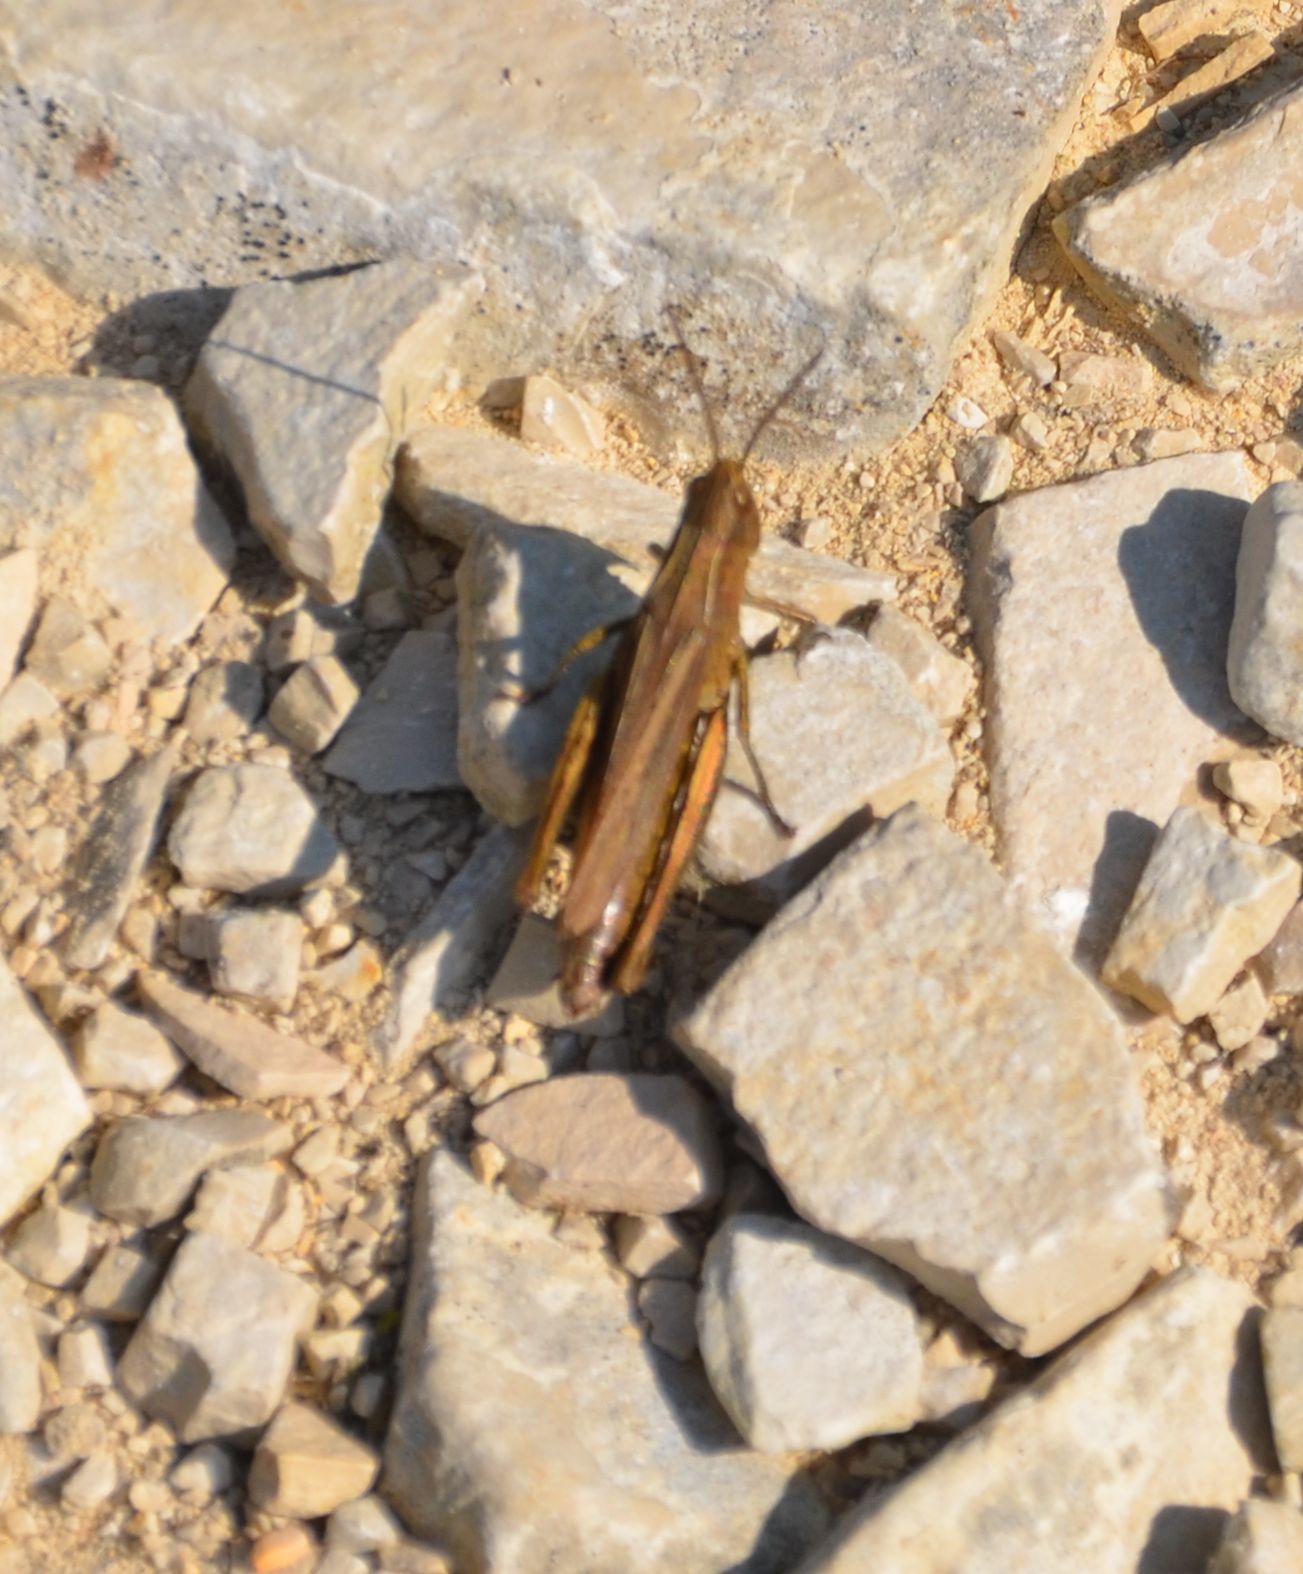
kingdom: Animalia
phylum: Arthropoda
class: Insecta
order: Orthoptera
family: Acrididae
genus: Chorthippus
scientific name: Chorthippus dorsatus
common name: Steppe grasshopper
